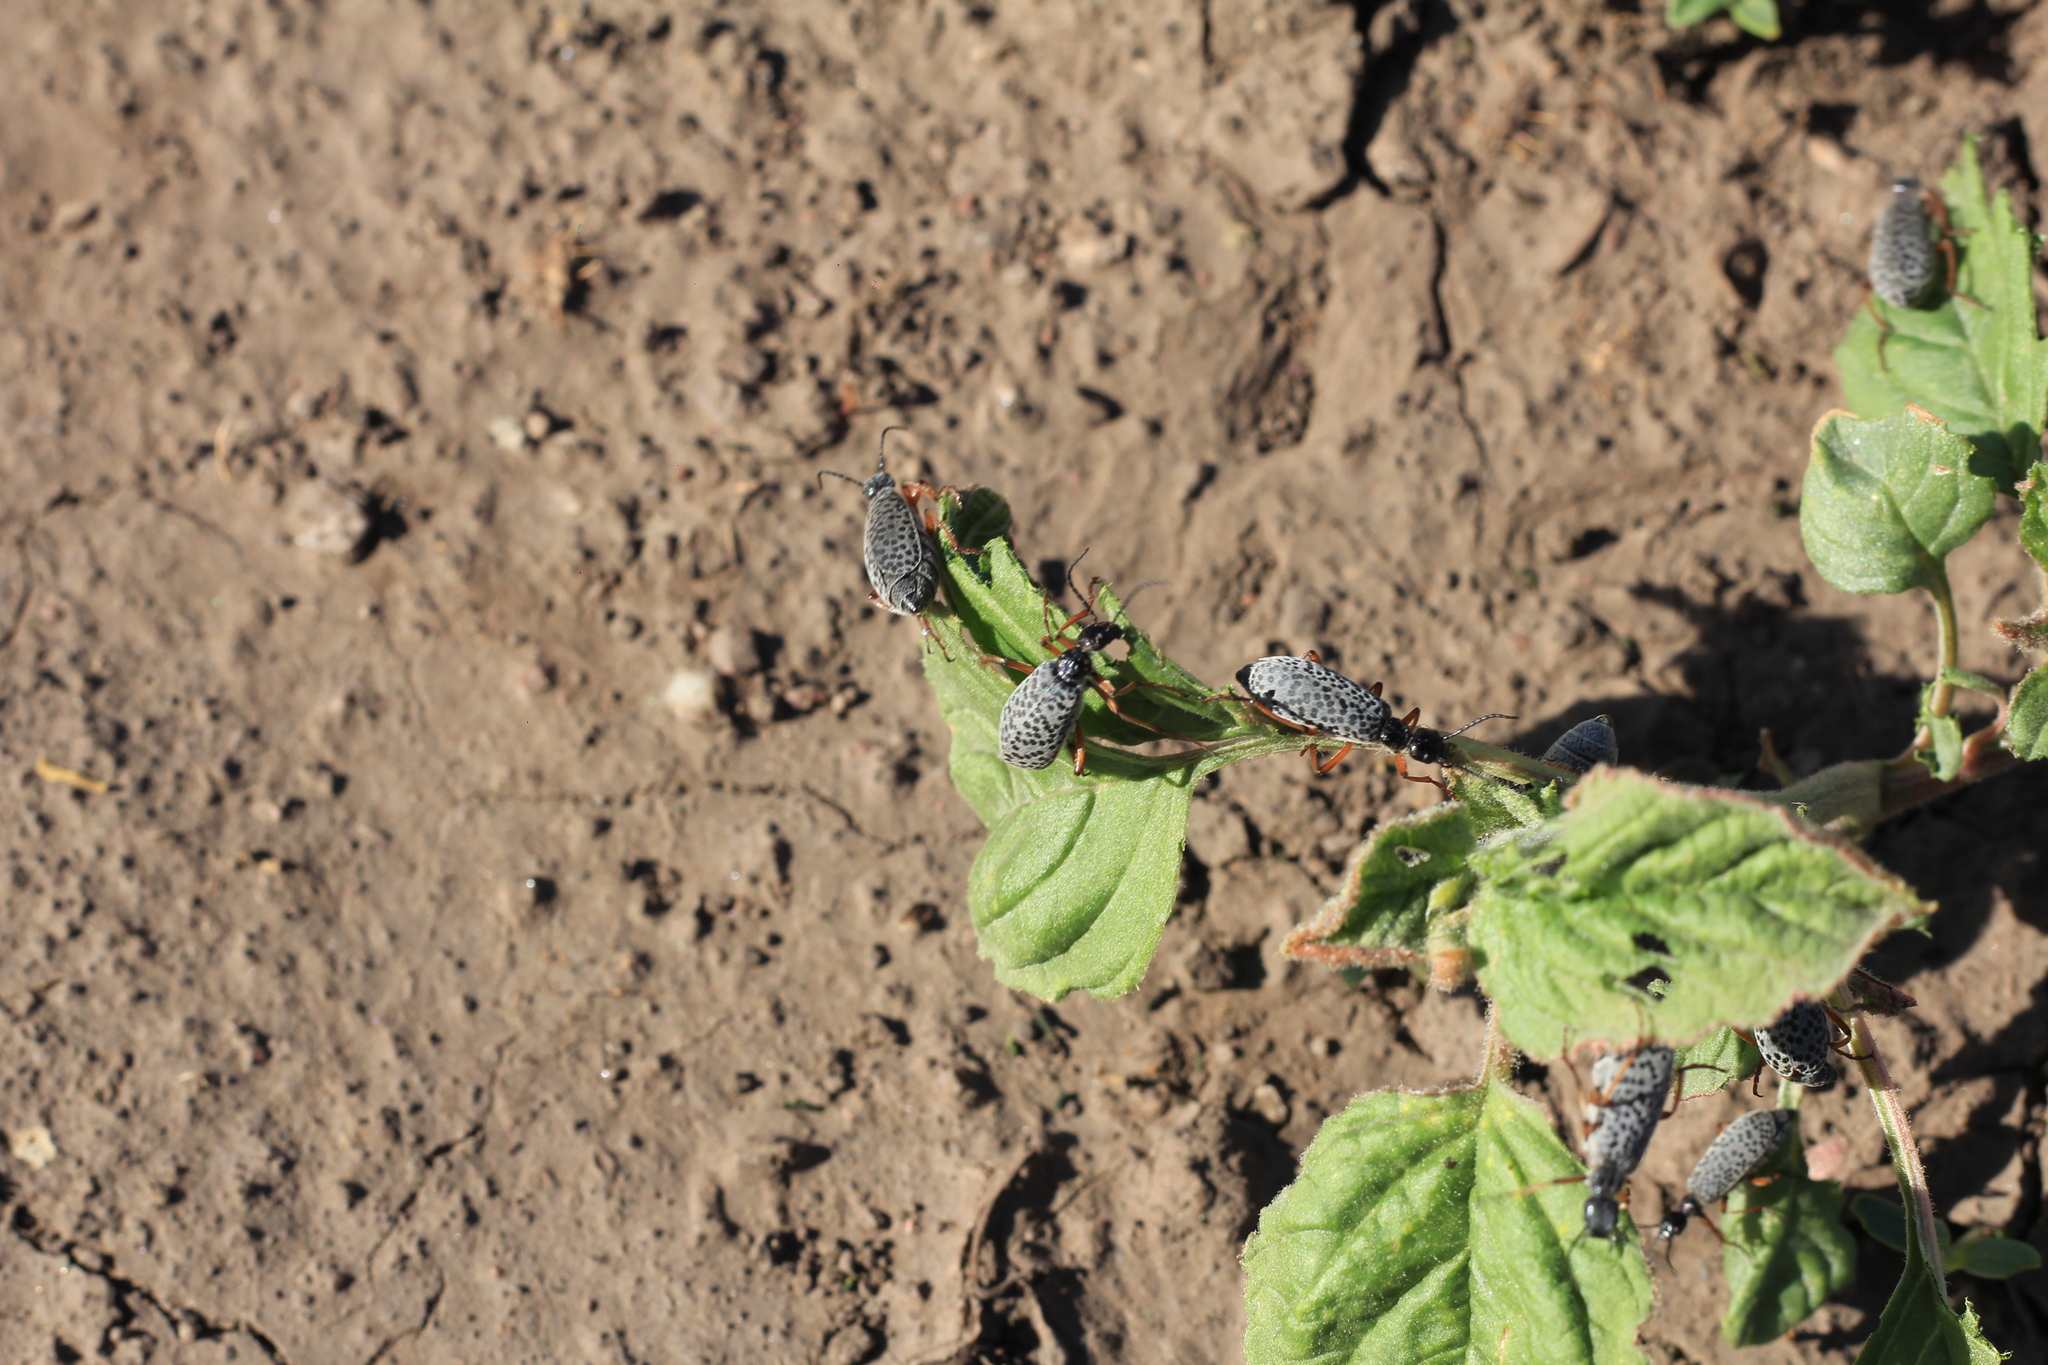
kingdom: Animalia
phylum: Arthropoda
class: Insecta
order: Coleoptera
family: Meloidae
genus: Epicauta
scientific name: Epicauta
